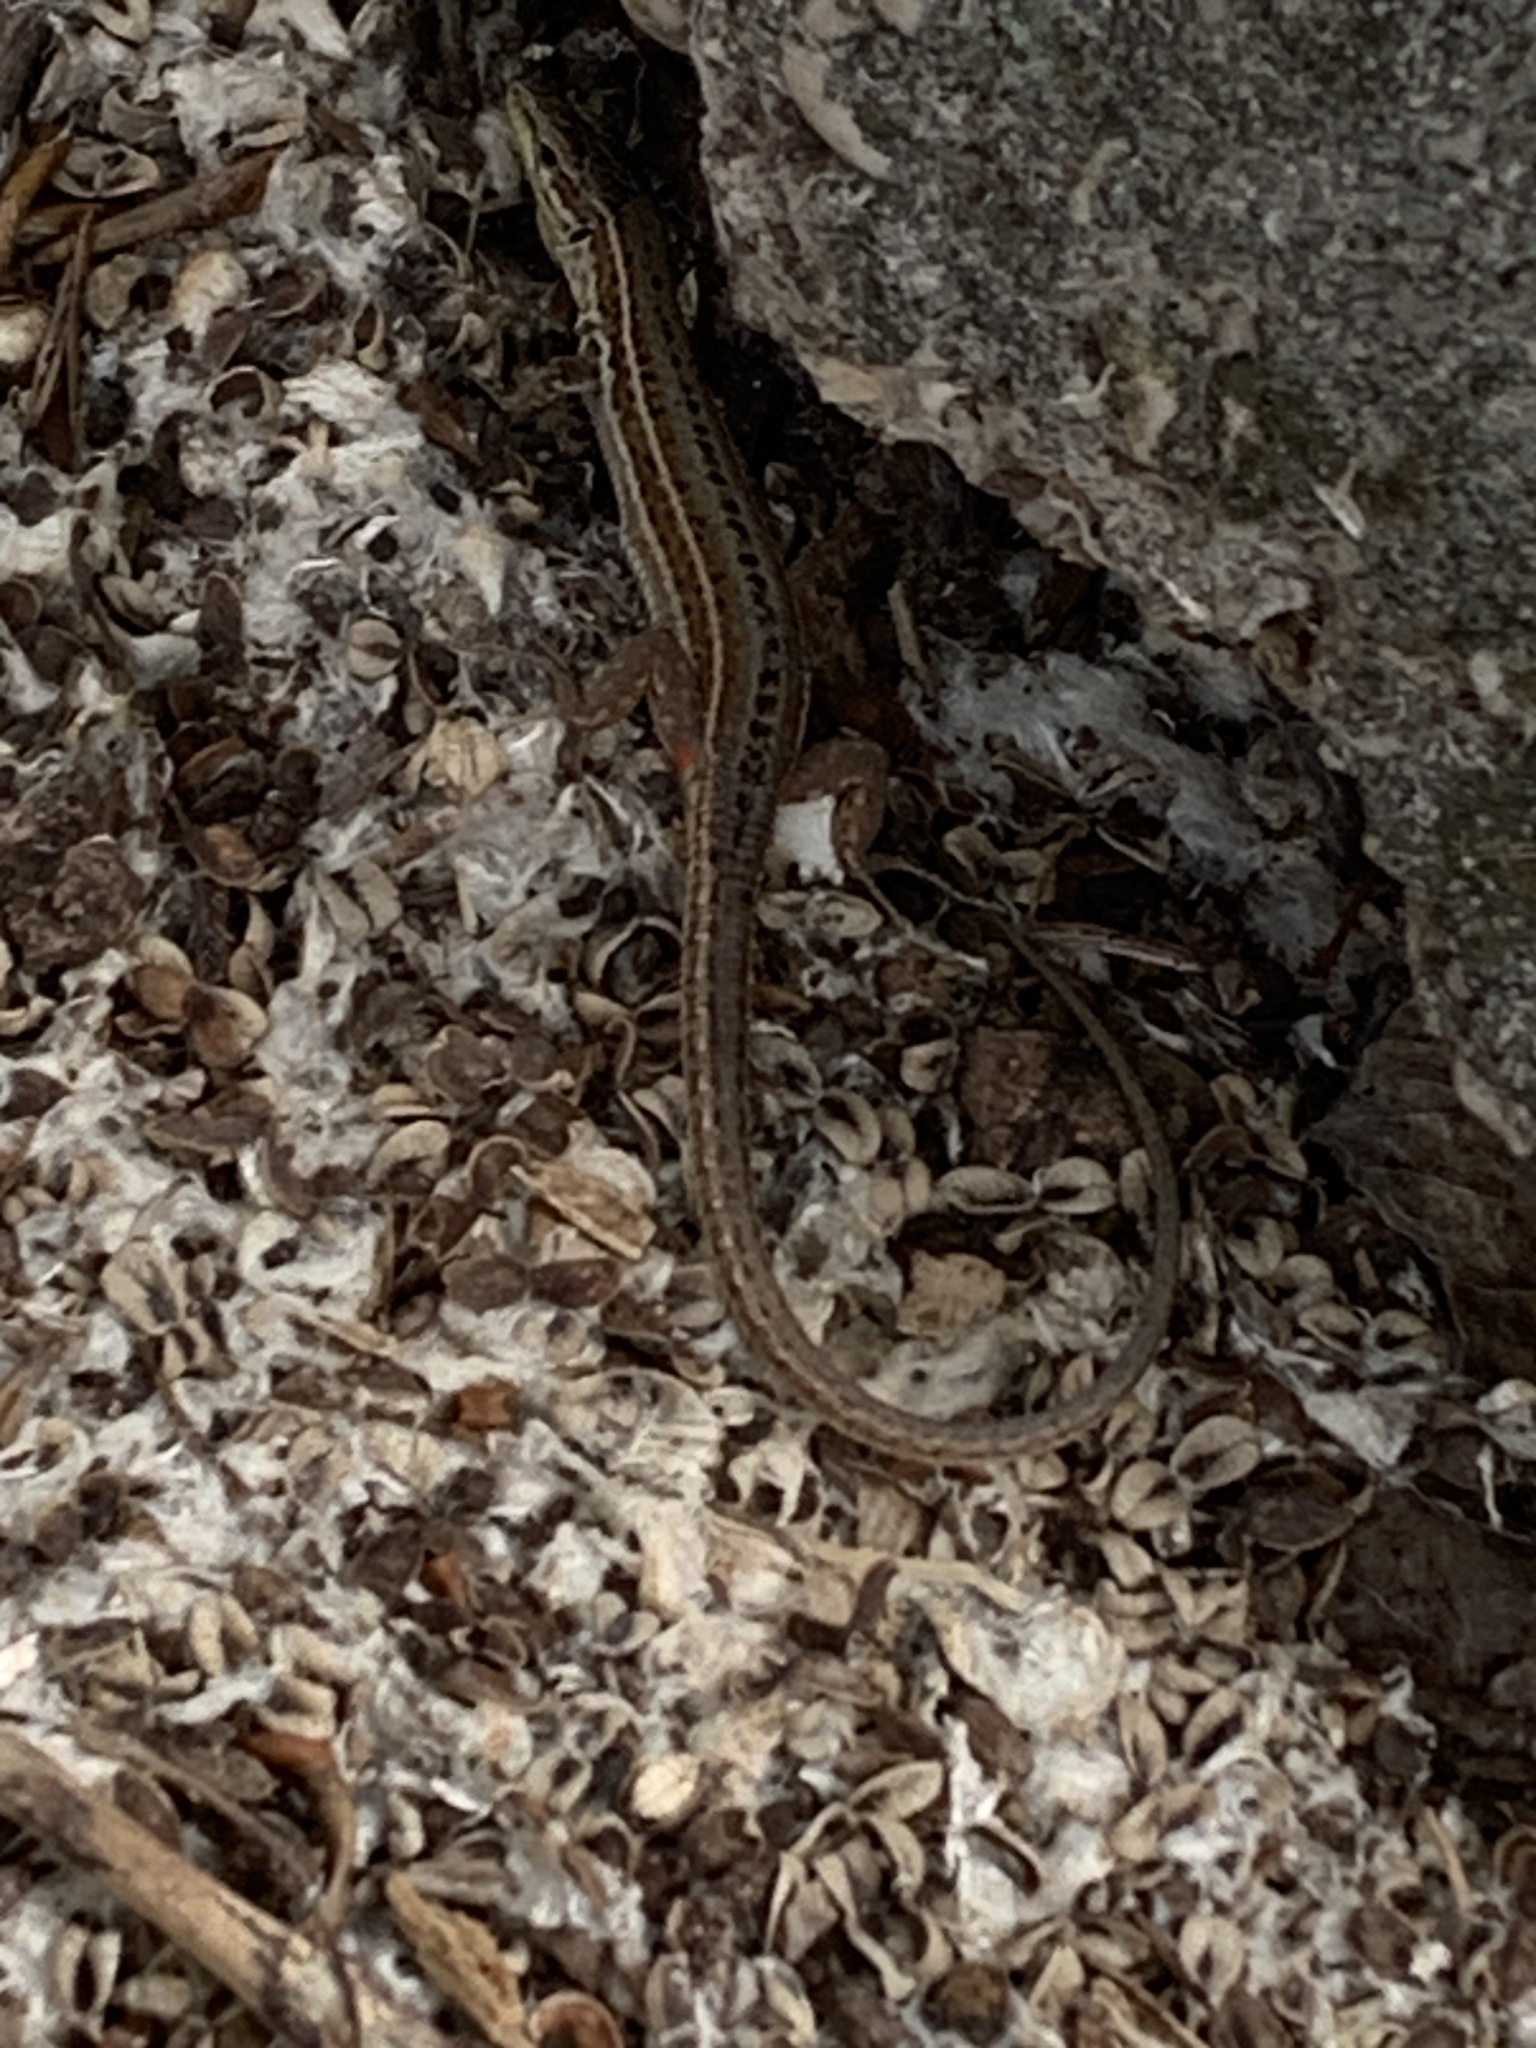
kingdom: Animalia
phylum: Chordata
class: Squamata
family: Lacertidae
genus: Podarcis
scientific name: Podarcis melisellensis
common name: Dalmatian wall lizard
